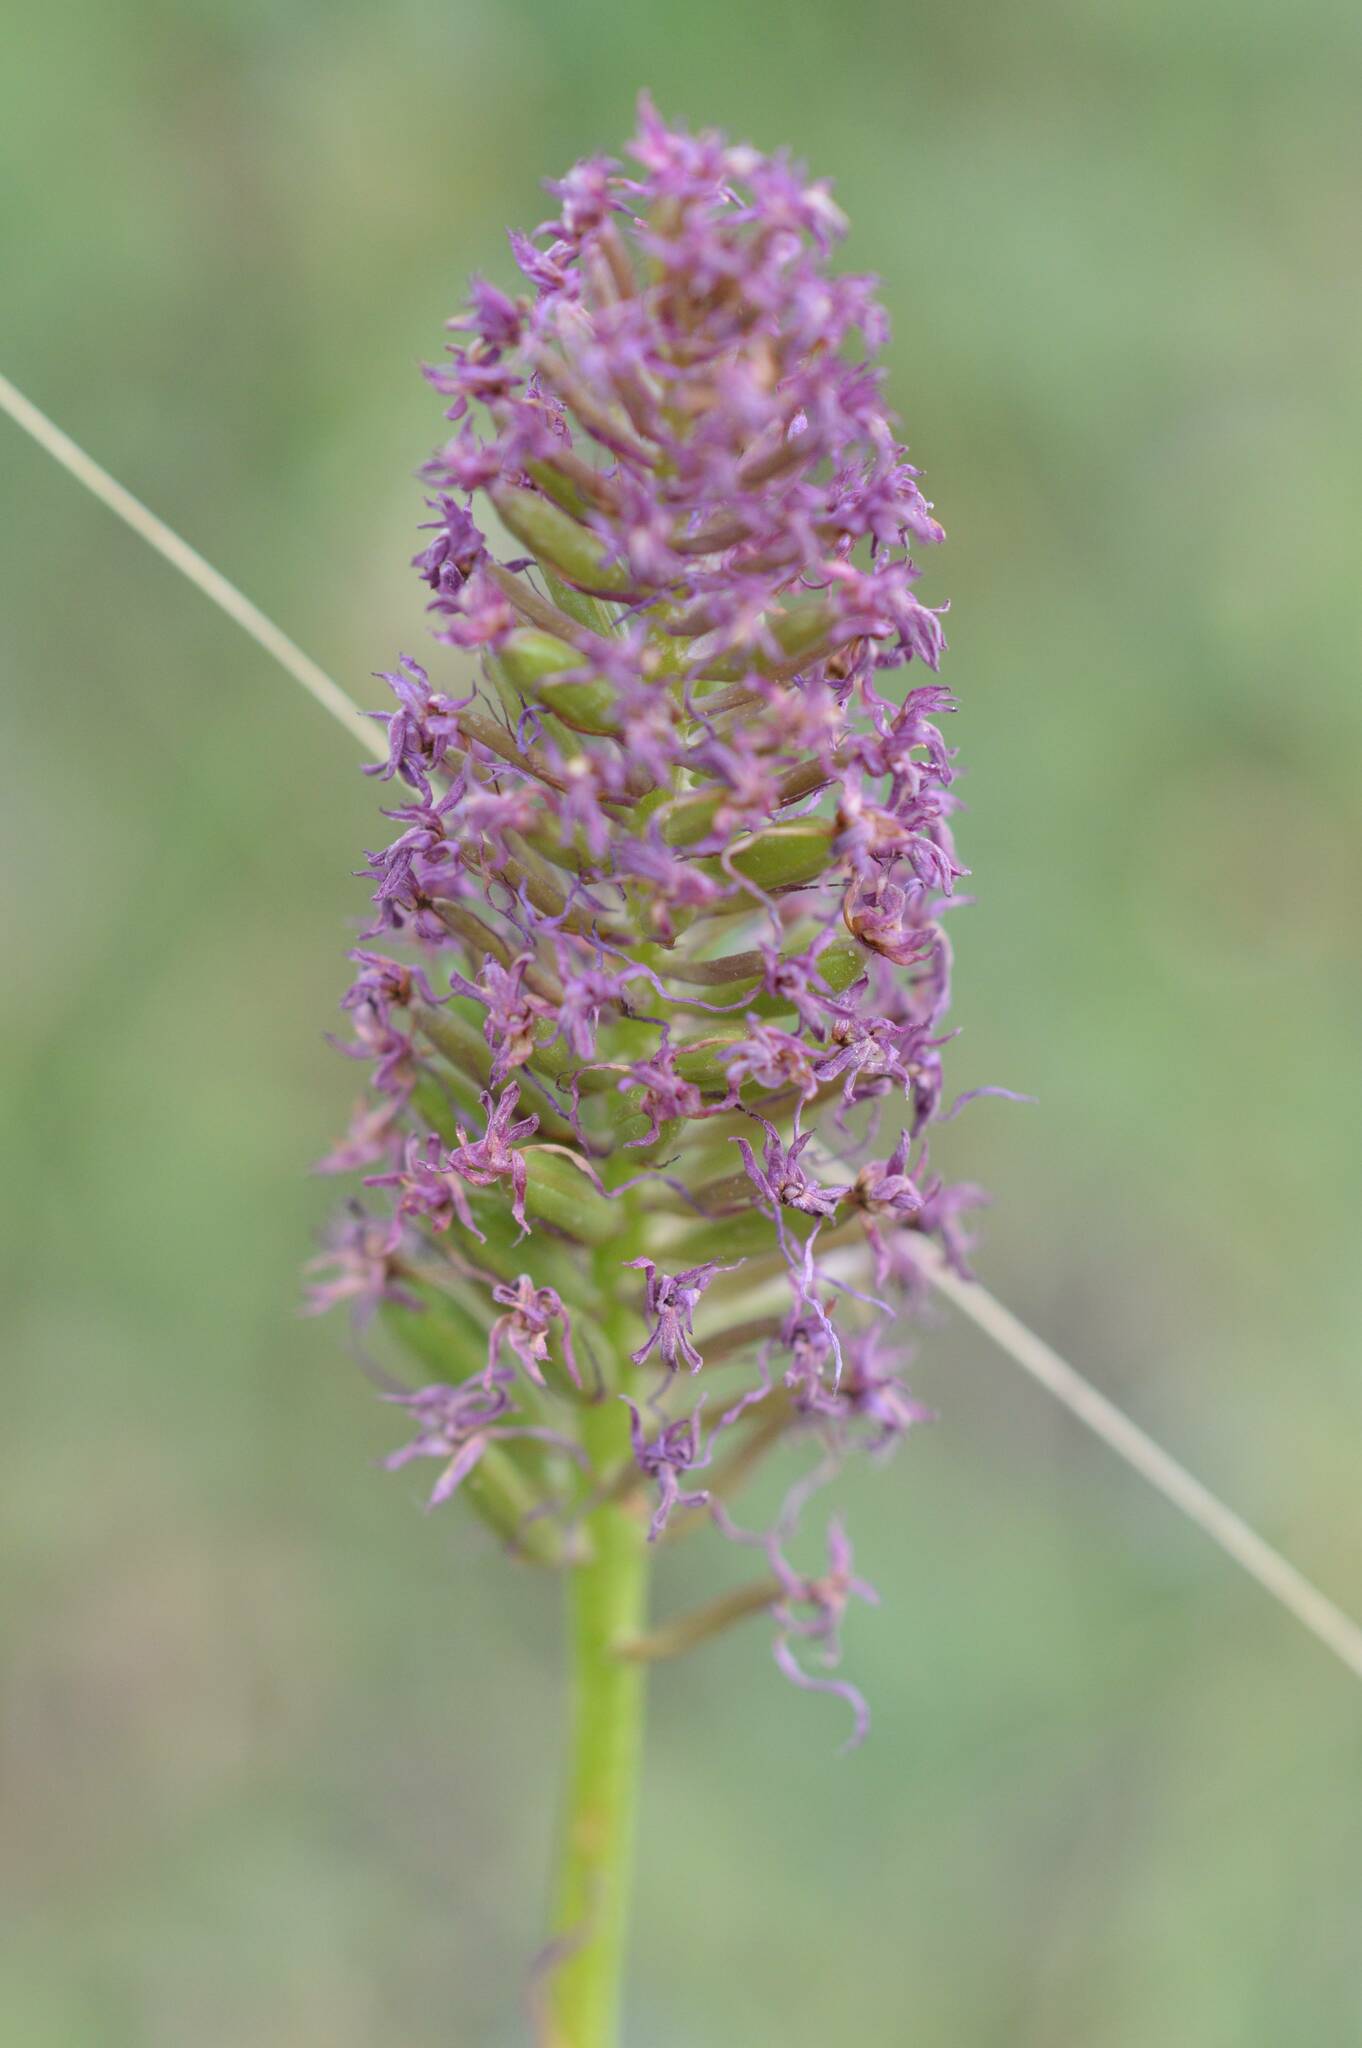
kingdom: Plantae
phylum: Tracheophyta
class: Liliopsida
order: Asparagales
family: Orchidaceae
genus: Anacamptis
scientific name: Anacamptis pyramidalis
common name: Pyramidal orchid
